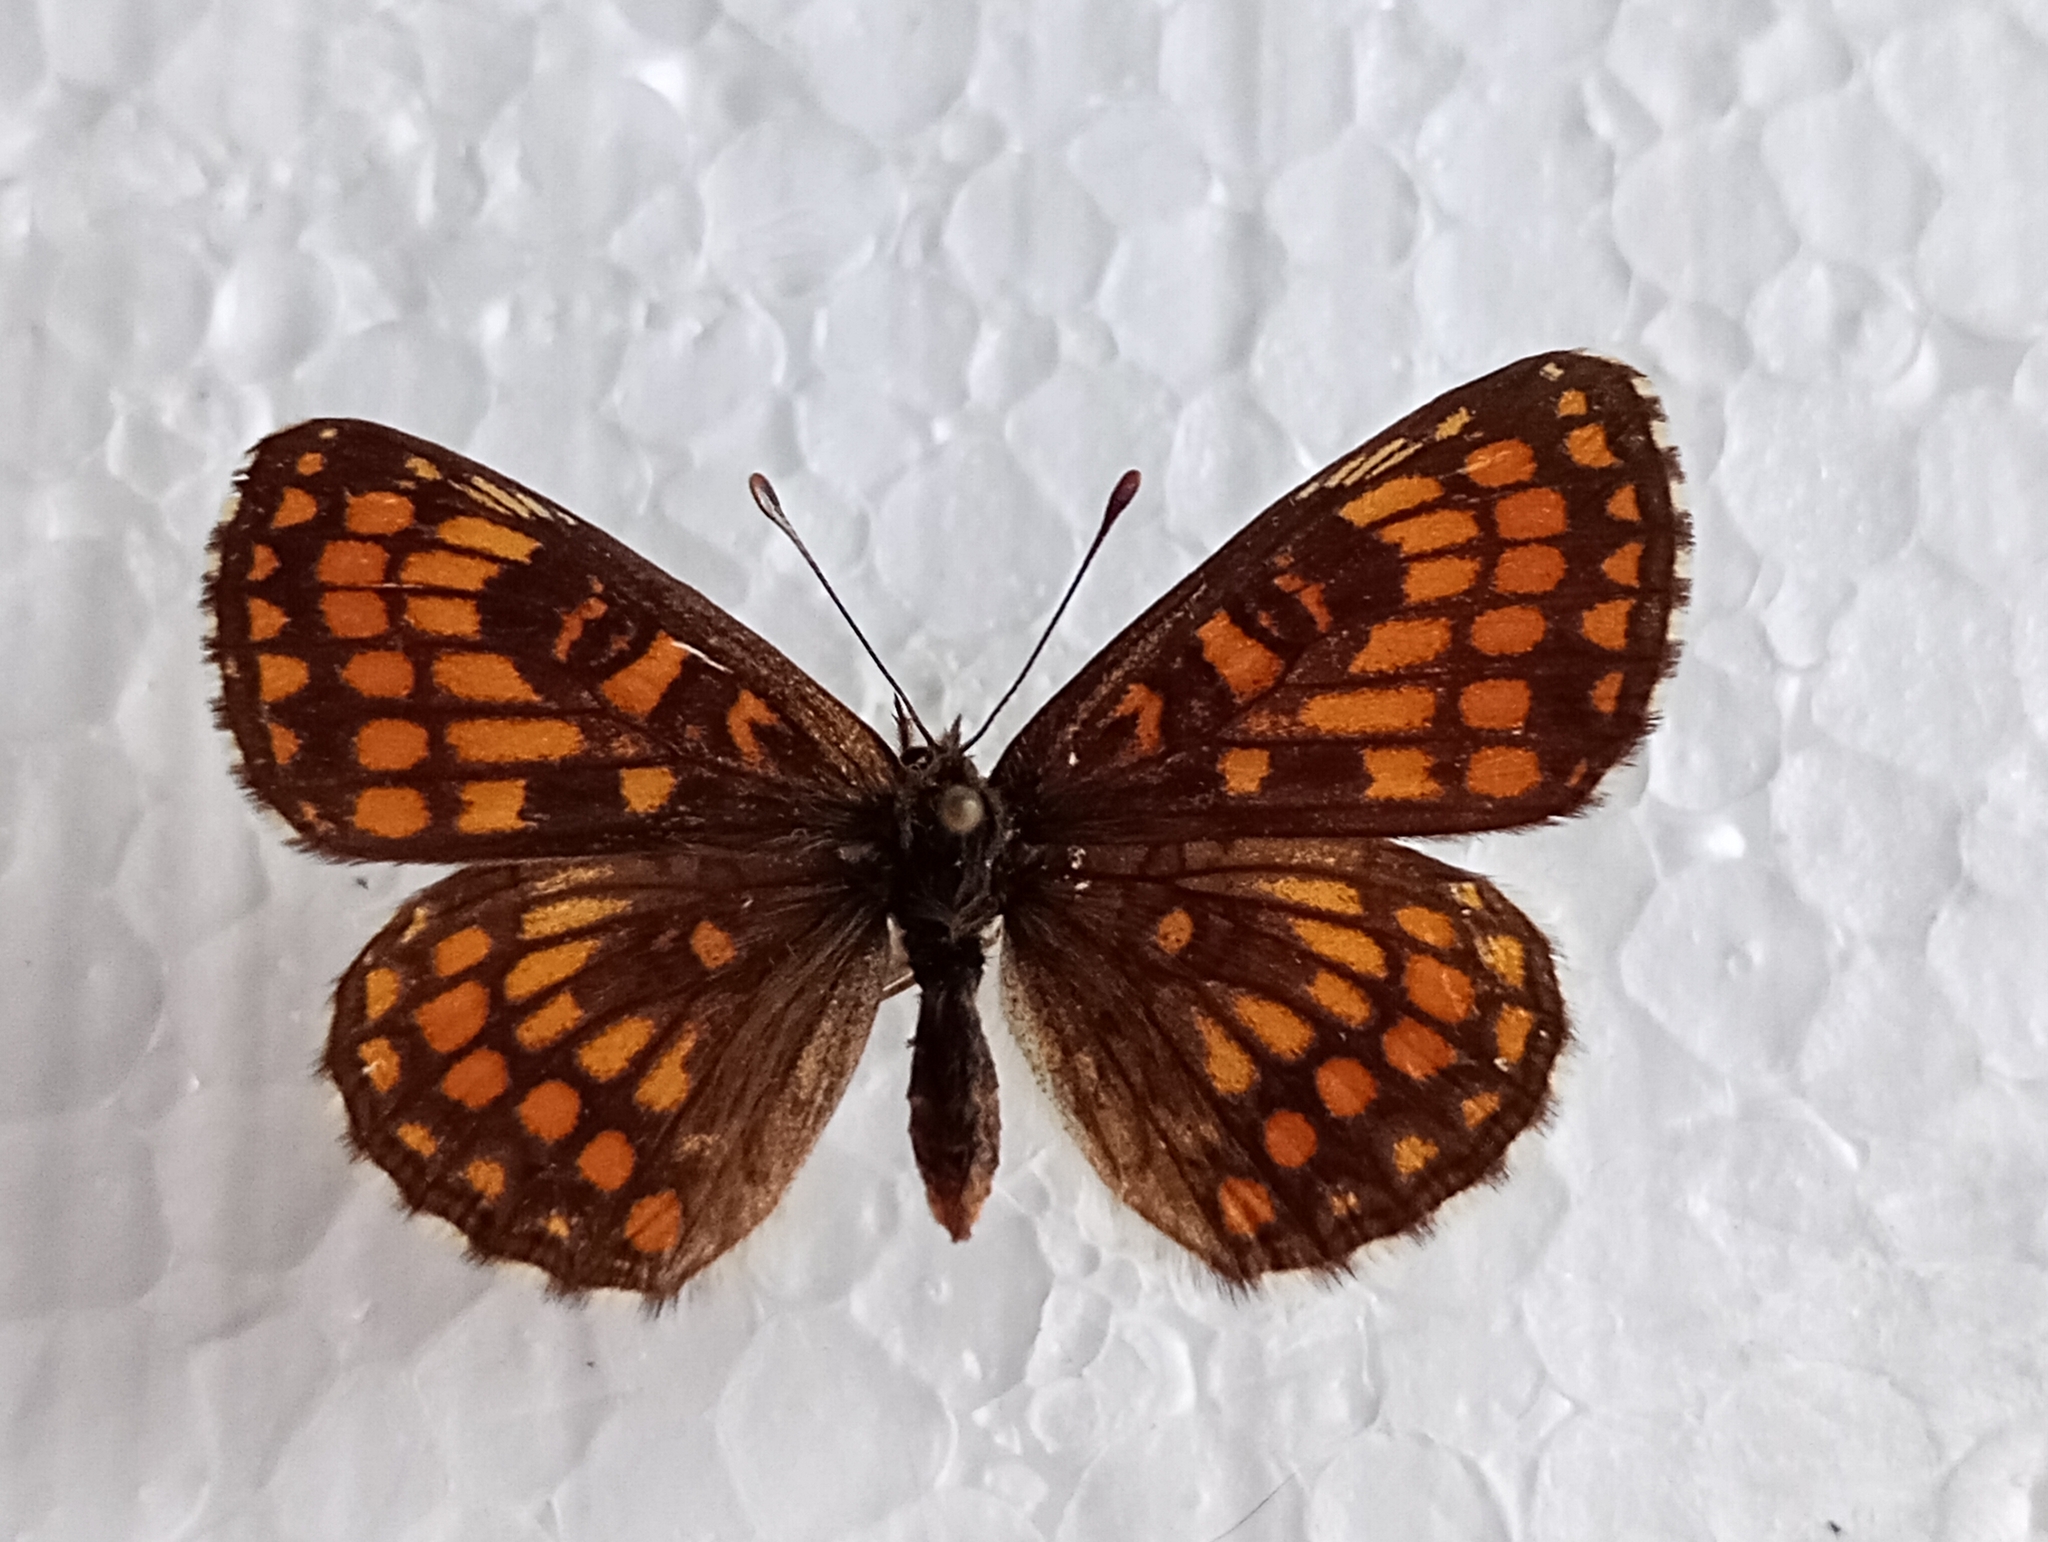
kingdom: Animalia
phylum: Arthropoda
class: Insecta
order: Lepidoptera
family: Nymphalidae
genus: Melitaea
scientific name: Melitaea athalia
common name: Heath fritillary
